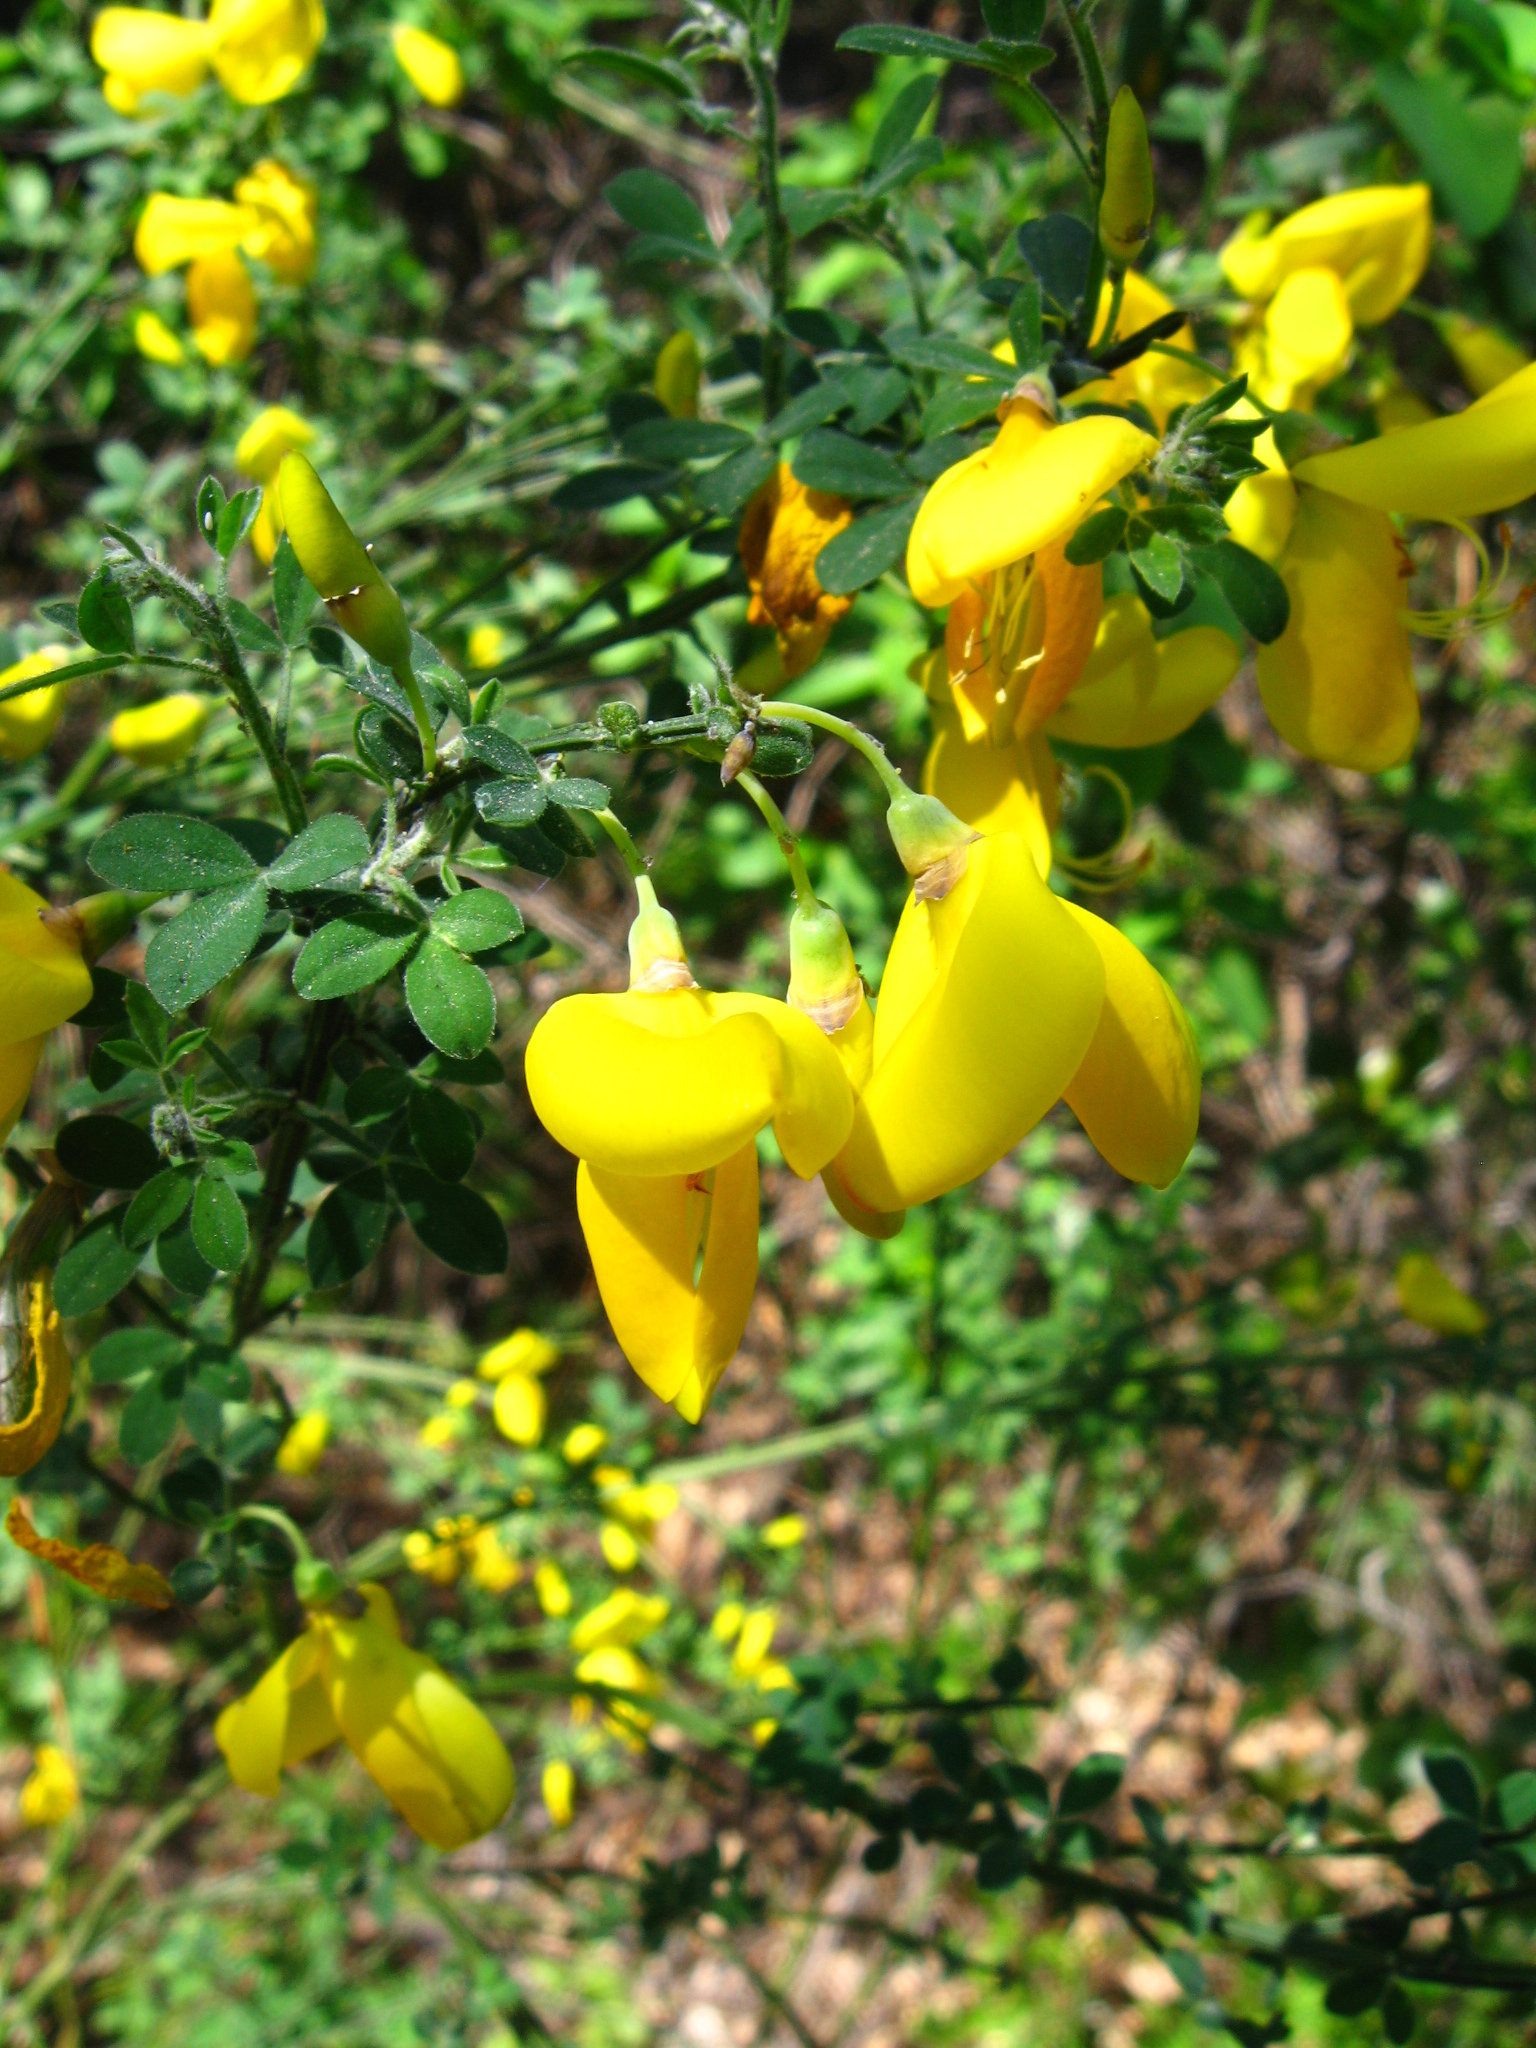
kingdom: Plantae
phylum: Tracheophyta
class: Magnoliopsida
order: Fabales
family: Fabaceae
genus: Cytisus
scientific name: Cytisus scoparius
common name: Scotch broom
